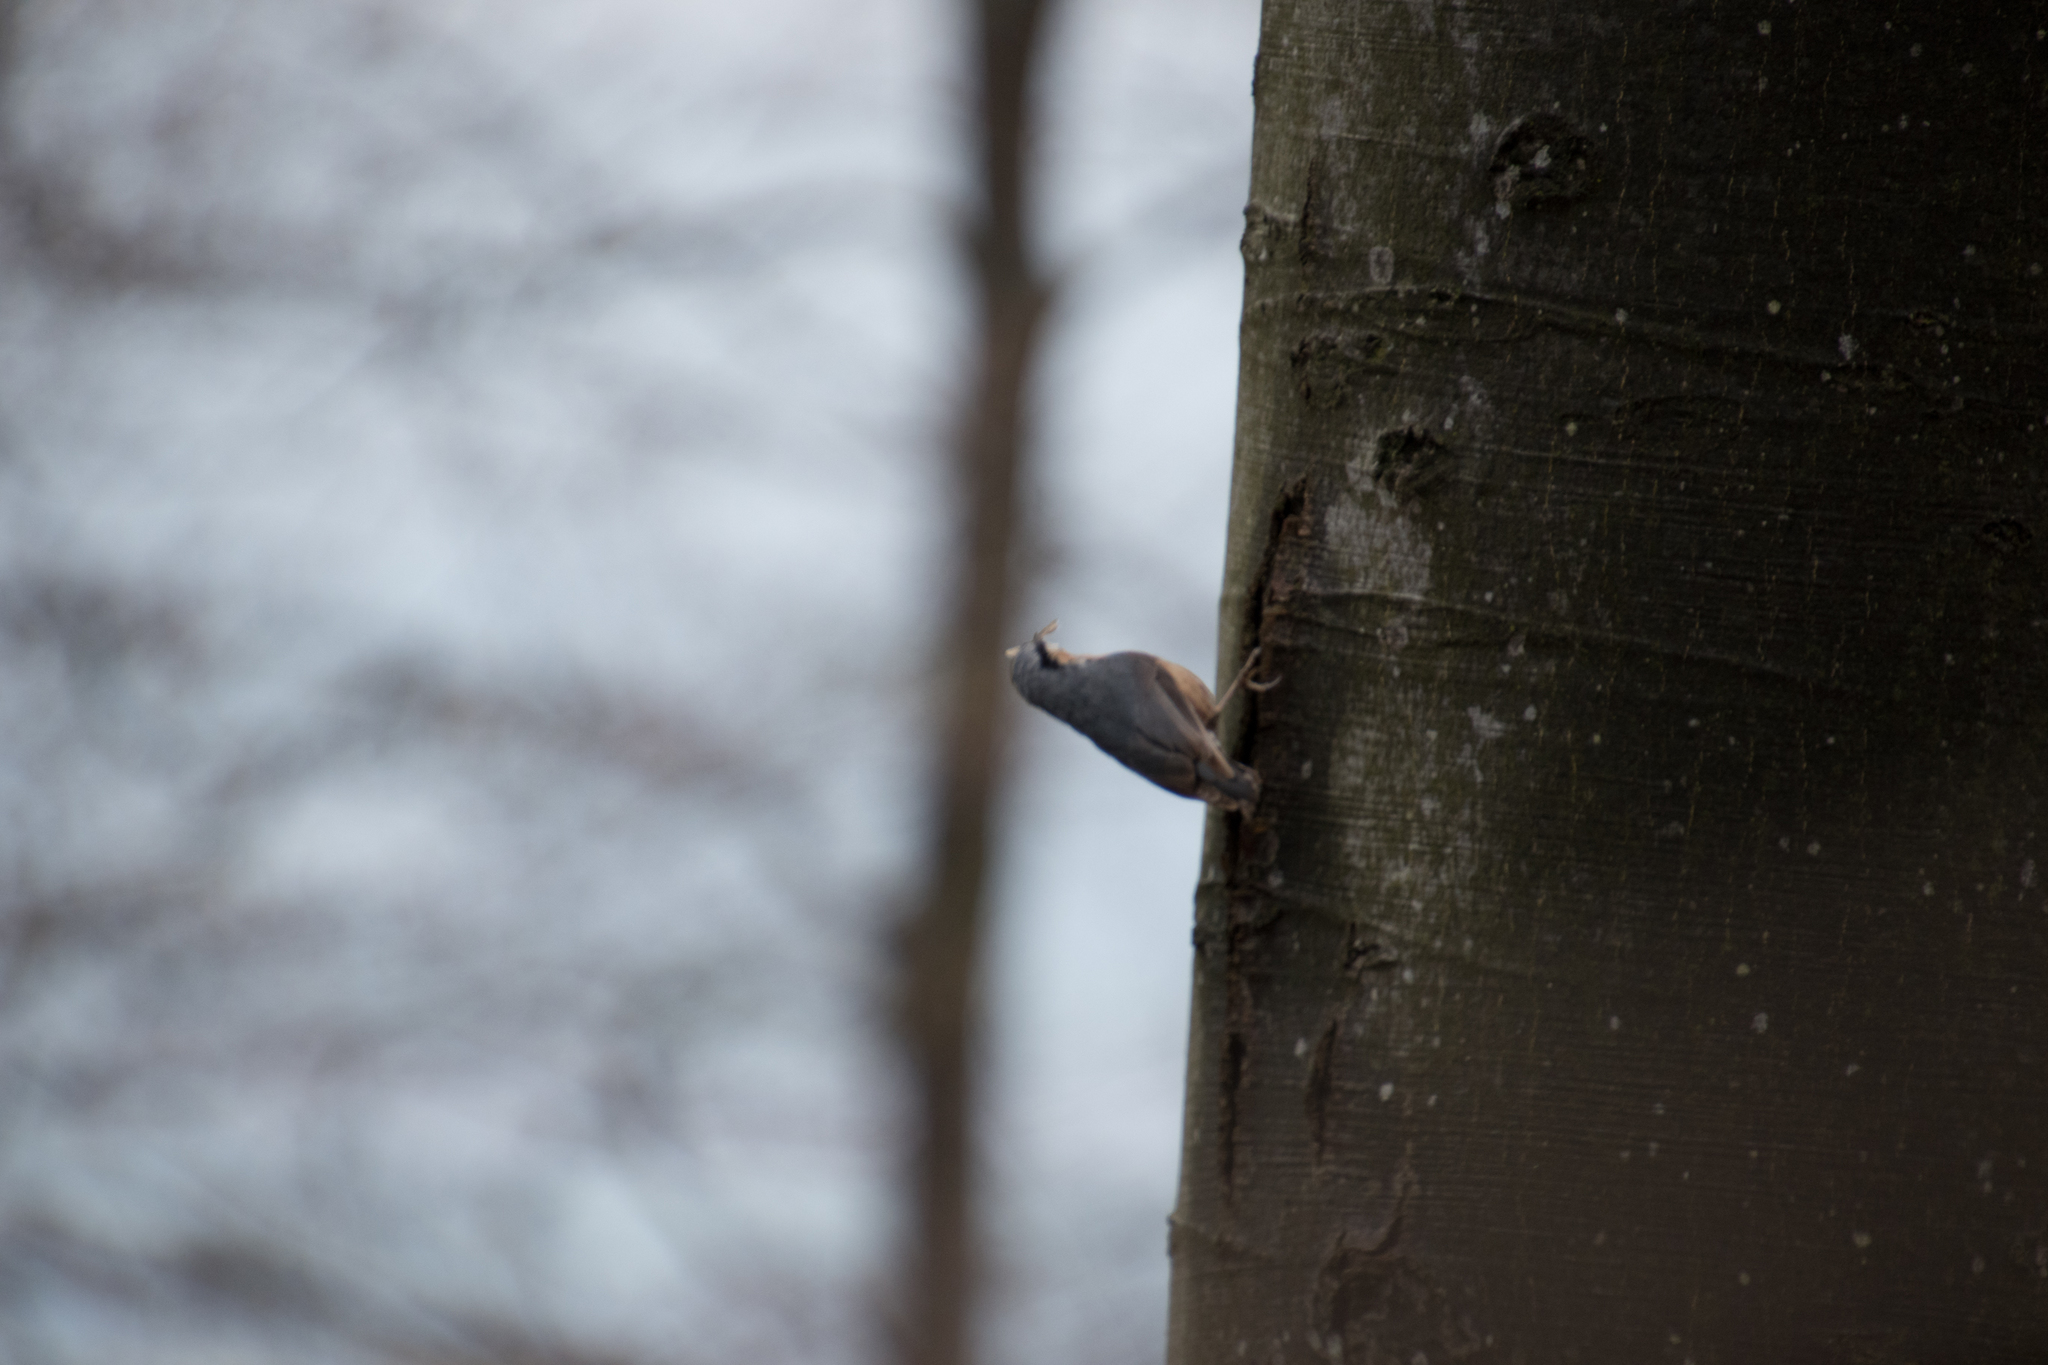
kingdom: Animalia
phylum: Chordata
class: Aves
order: Passeriformes
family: Sittidae
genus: Sitta
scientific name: Sitta europaea
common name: Eurasian nuthatch
